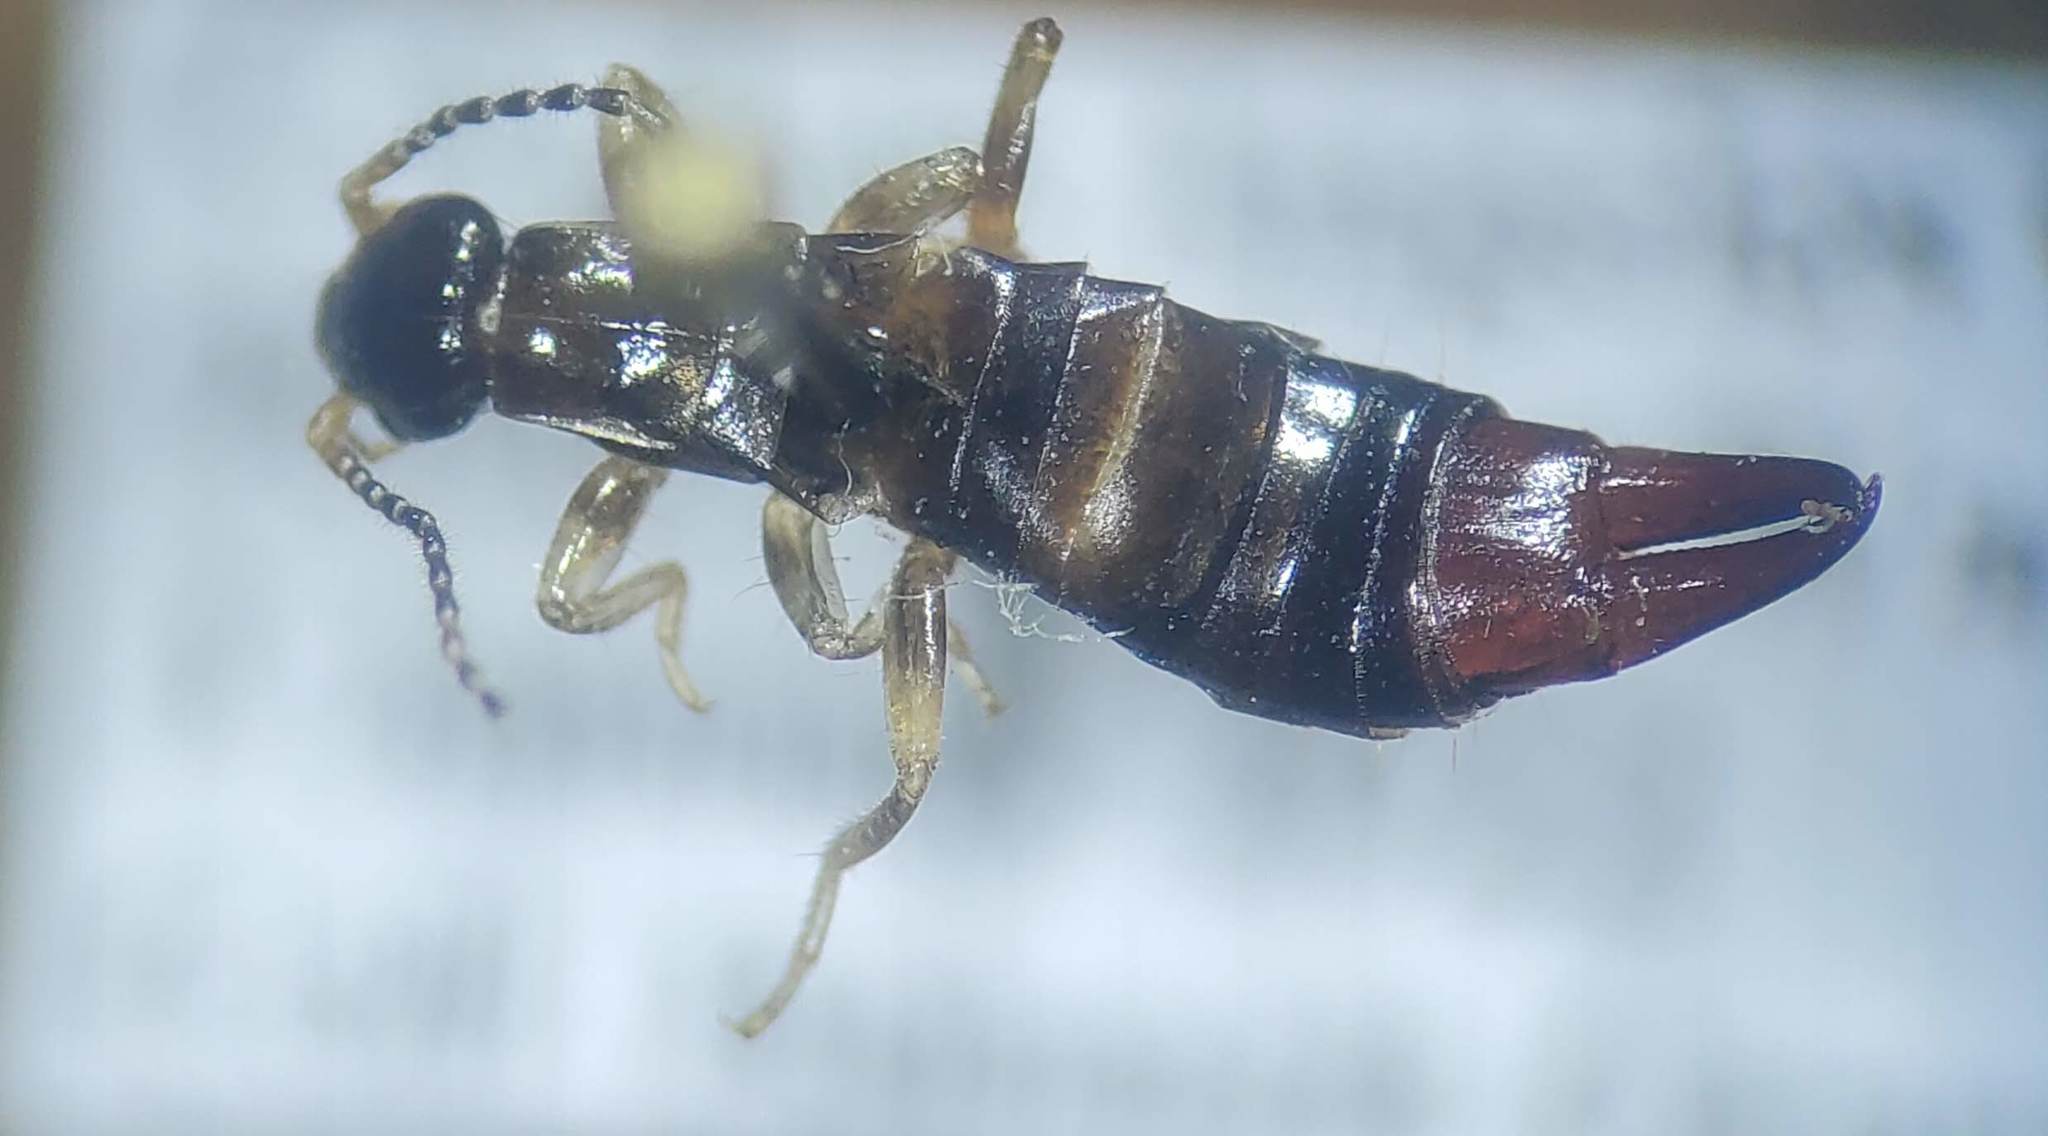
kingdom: Animalia
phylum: Arthropoda
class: Insecta
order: Dermaptera
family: Anisolabididae
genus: Euborellia
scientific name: Euborellia annulipes
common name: Ringlegged earwig
